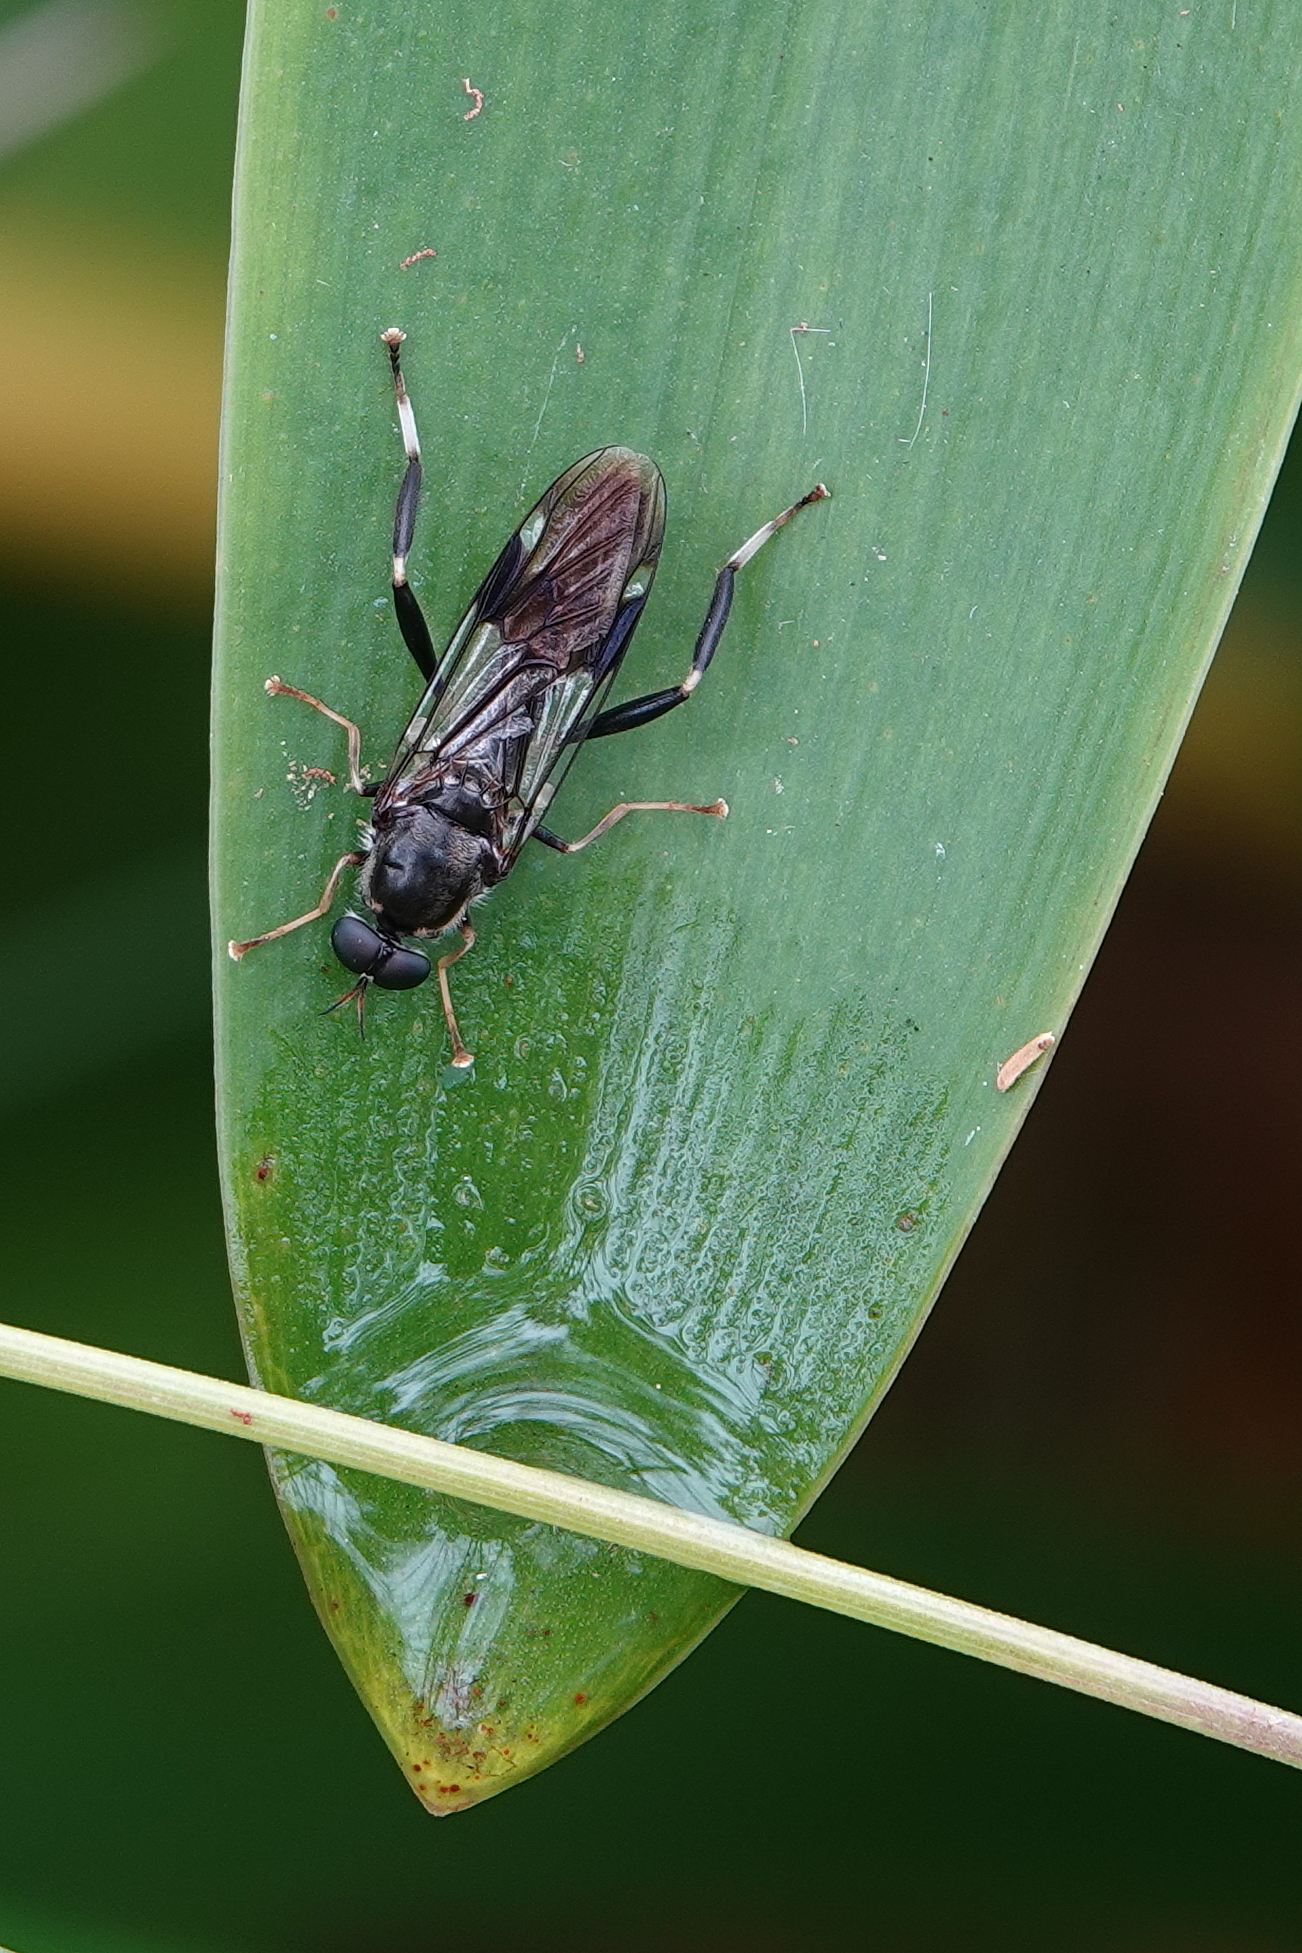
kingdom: Animalia
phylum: Arthropoda
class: Insecta
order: Diptera
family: Stratiomyidae
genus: Exaireta
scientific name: Exaireta spinigera
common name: Blue soldier fly
